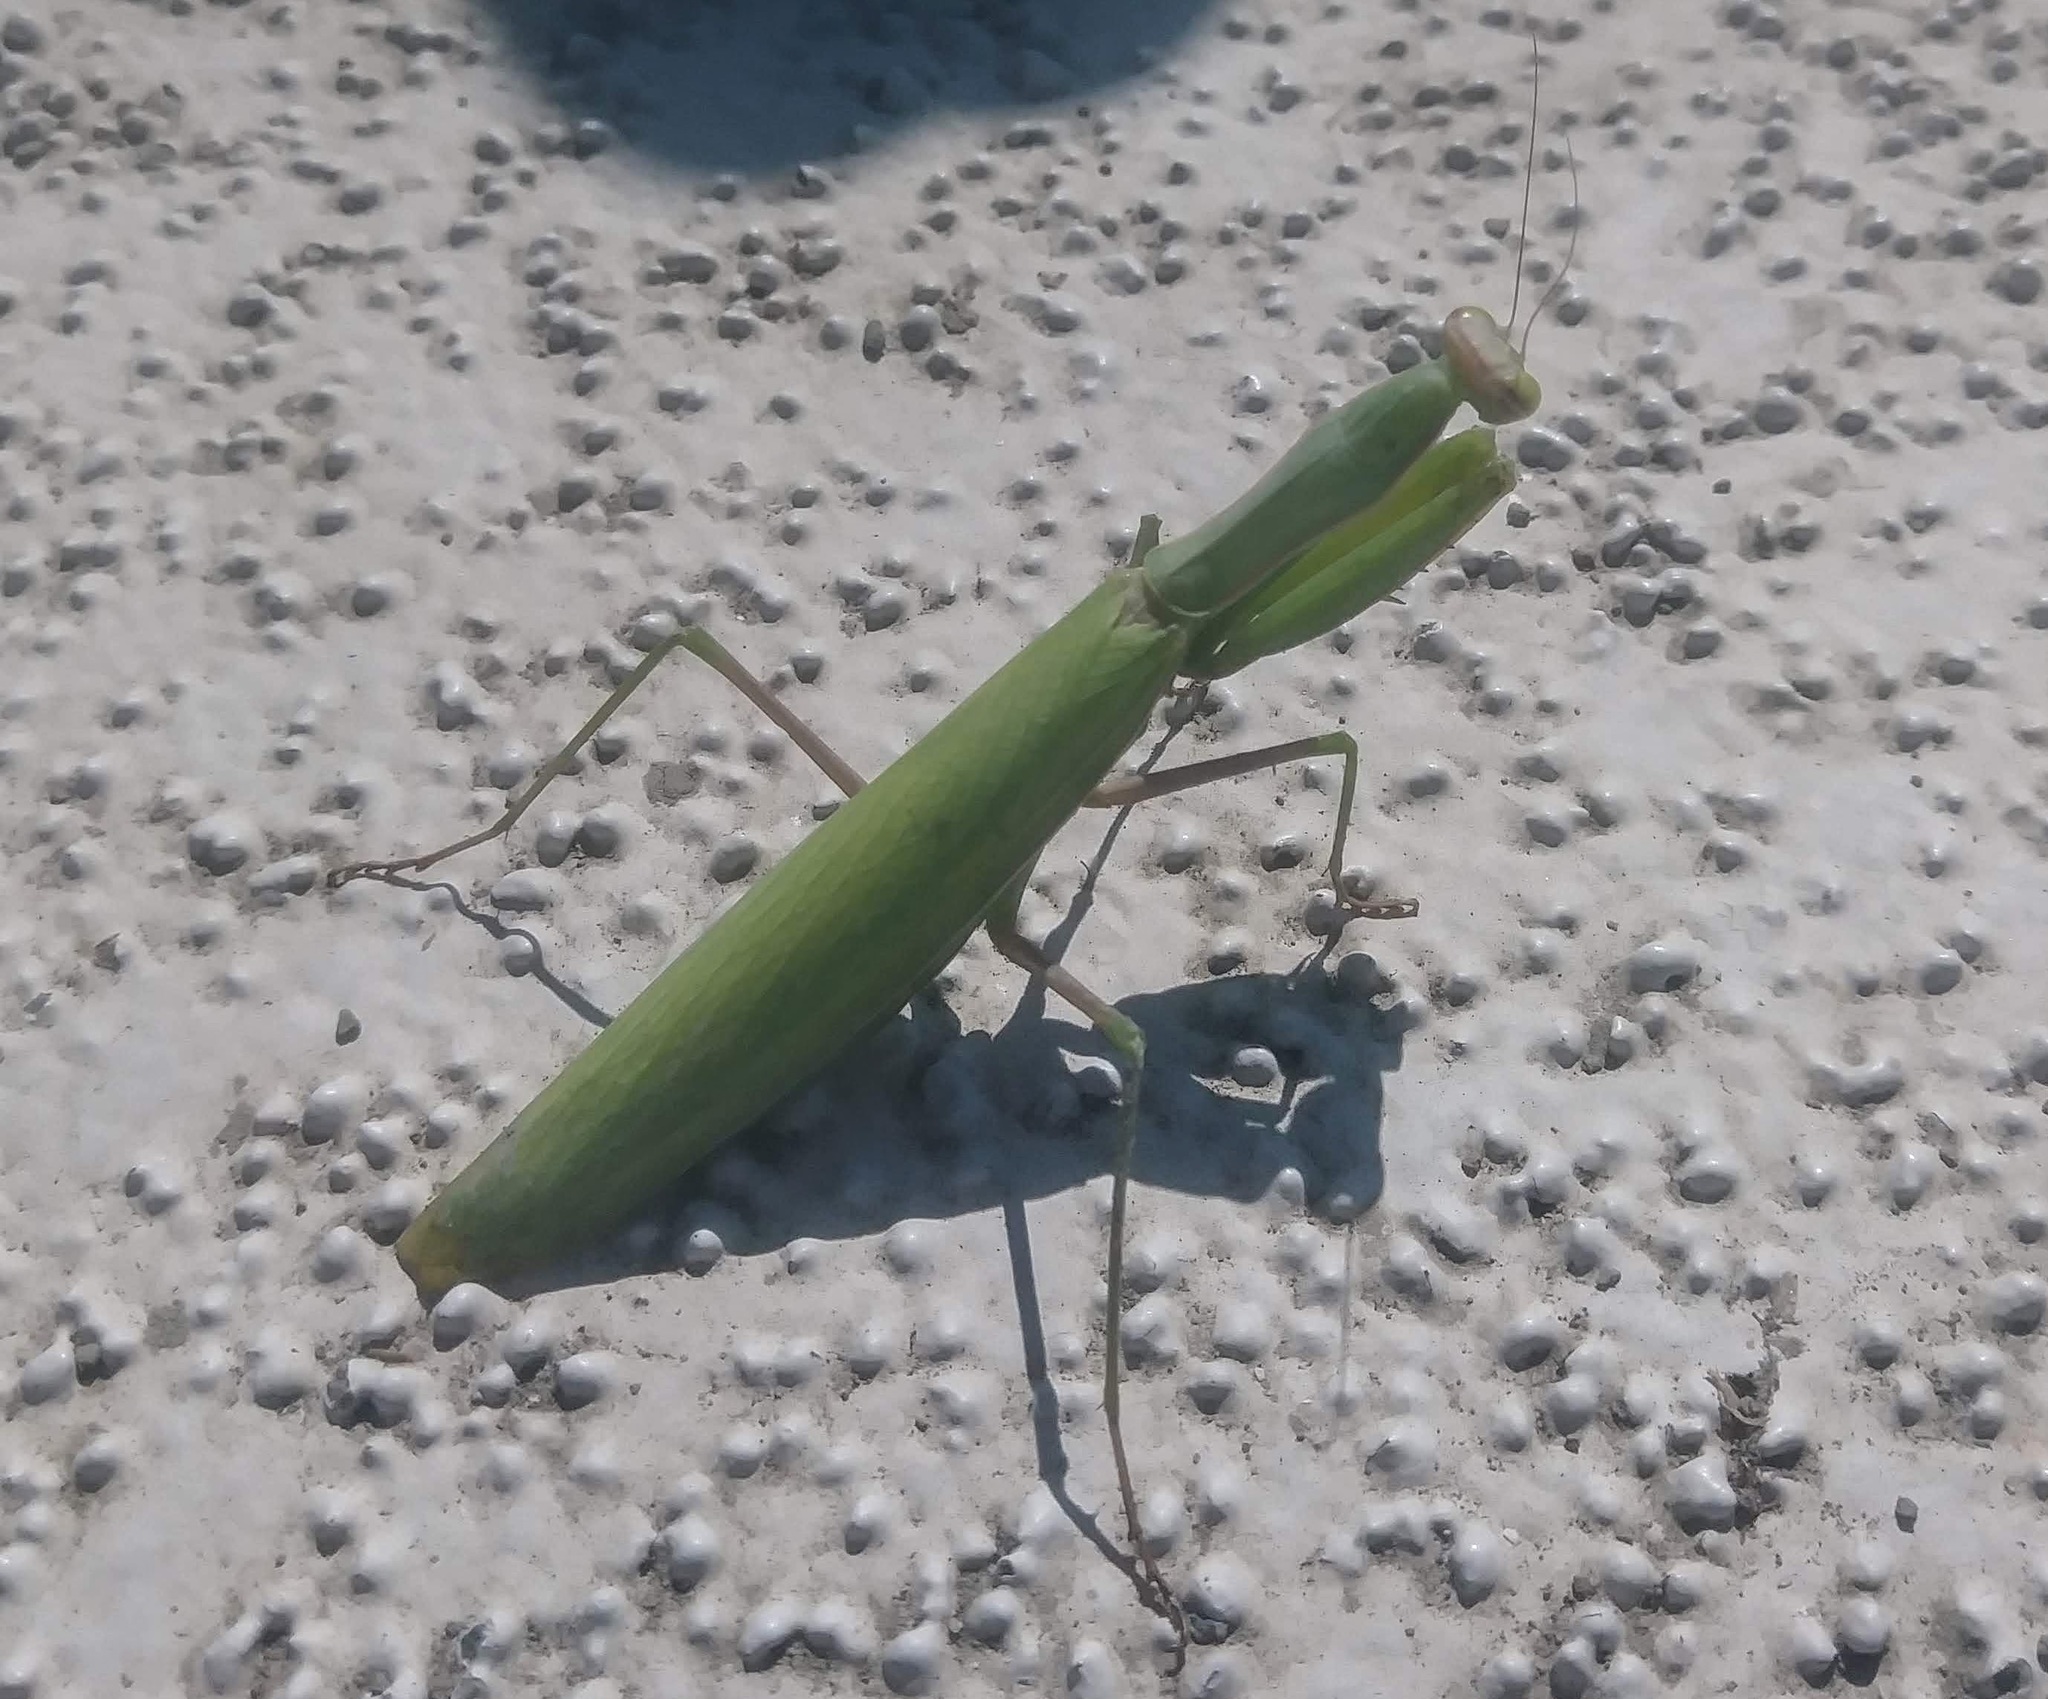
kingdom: Animalia
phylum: Arthropoda
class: Insecta
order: Mantodea
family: Mantidae
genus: Mantis
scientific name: Mantis religiosa
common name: Praying mantis
